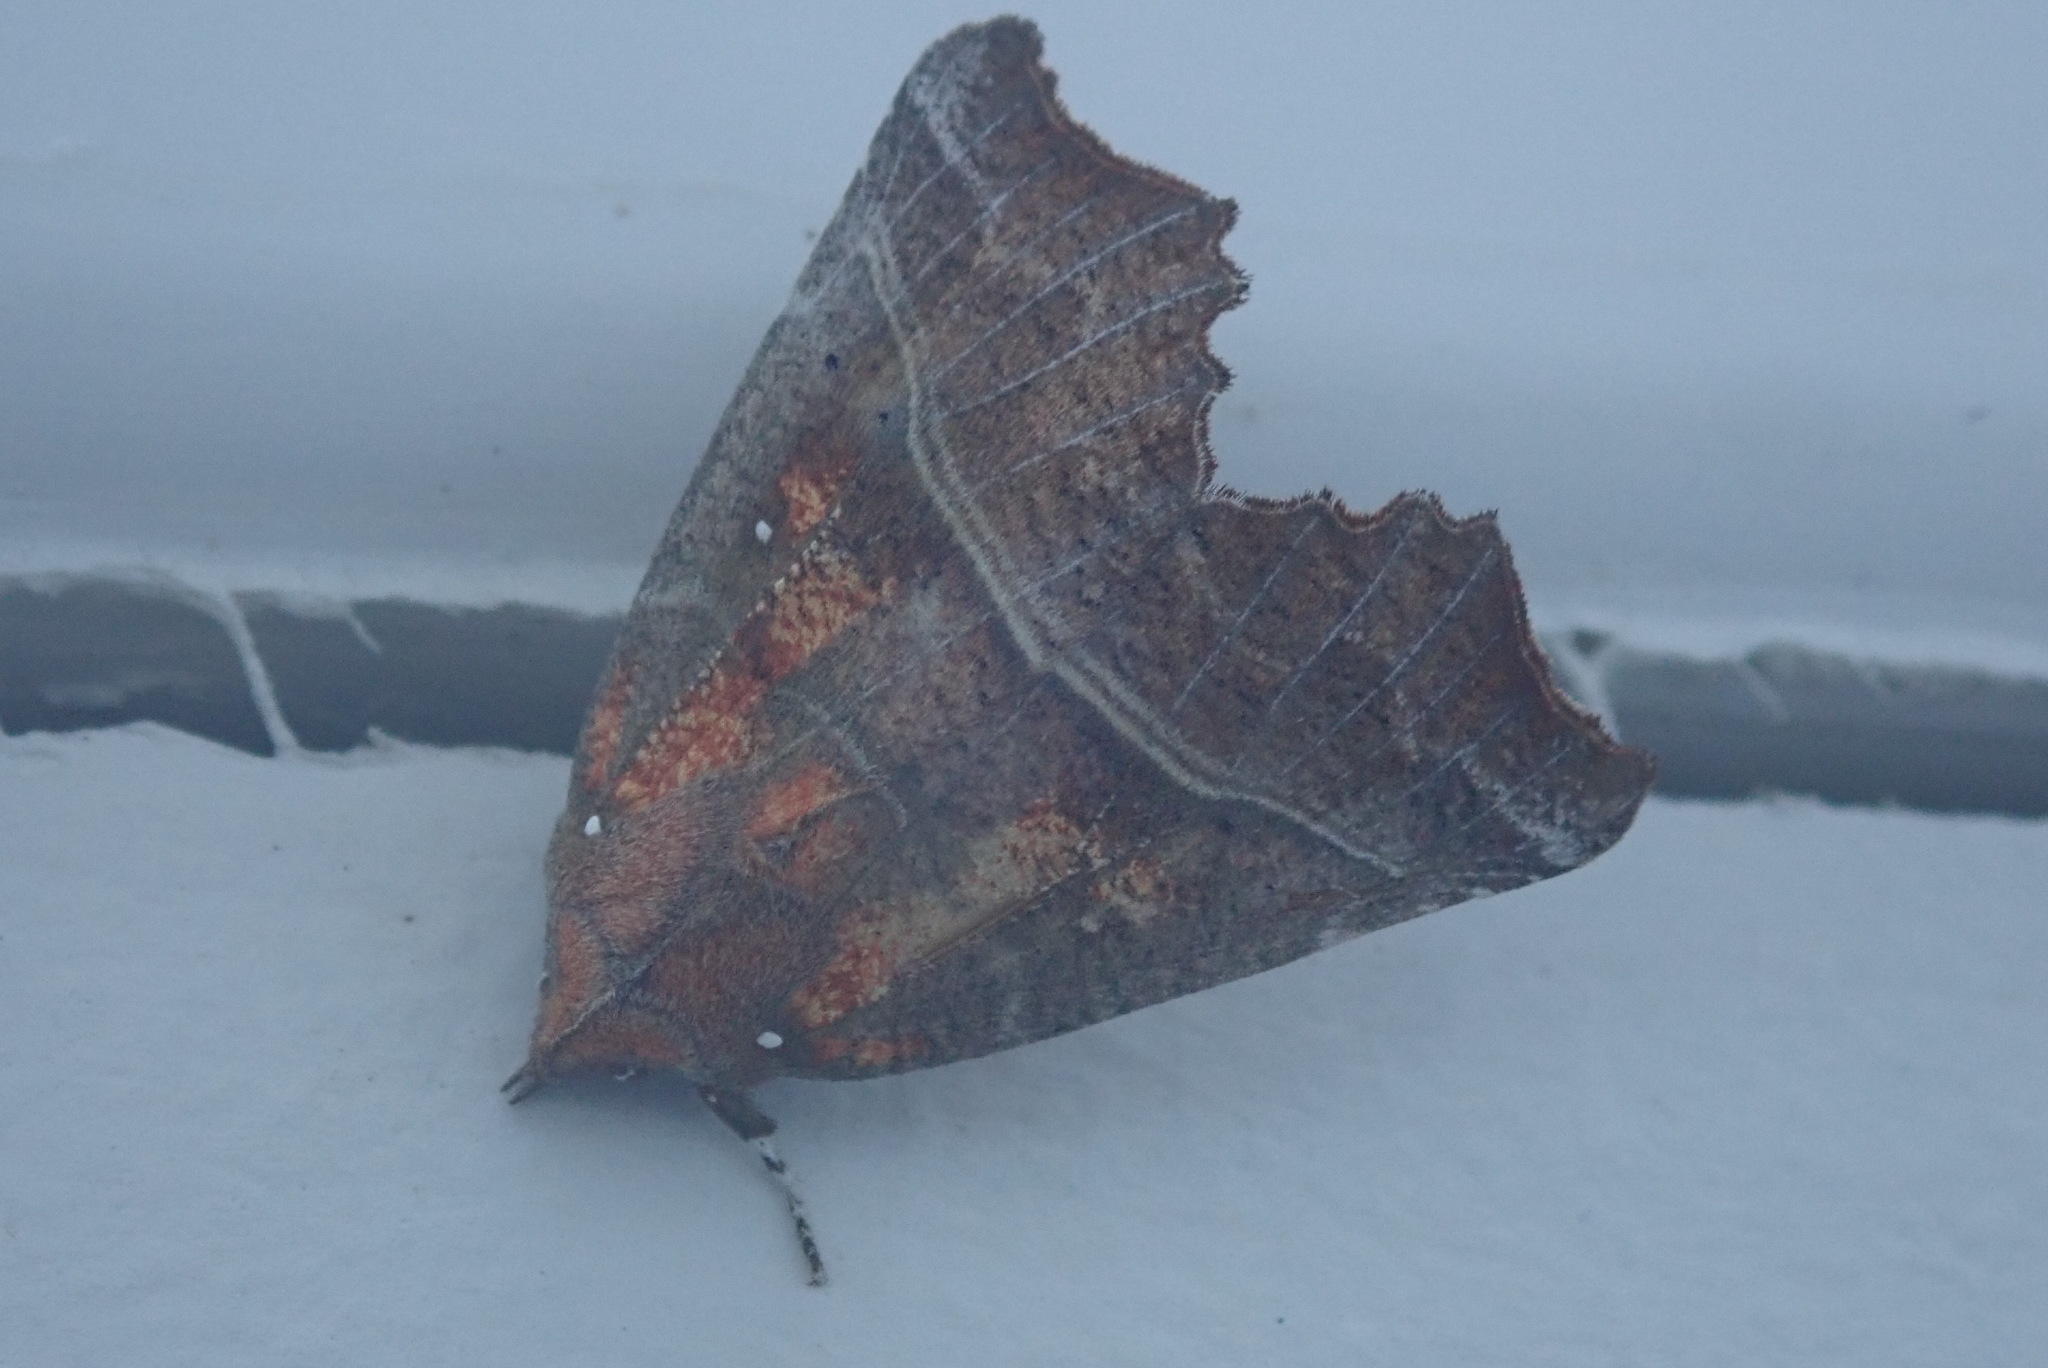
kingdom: Animalia
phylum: Arthropoda
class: Insecta
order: Lepidoptera
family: Erebidae
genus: Scoliopteryx
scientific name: Scoliopteryx libatrix
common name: Herald
